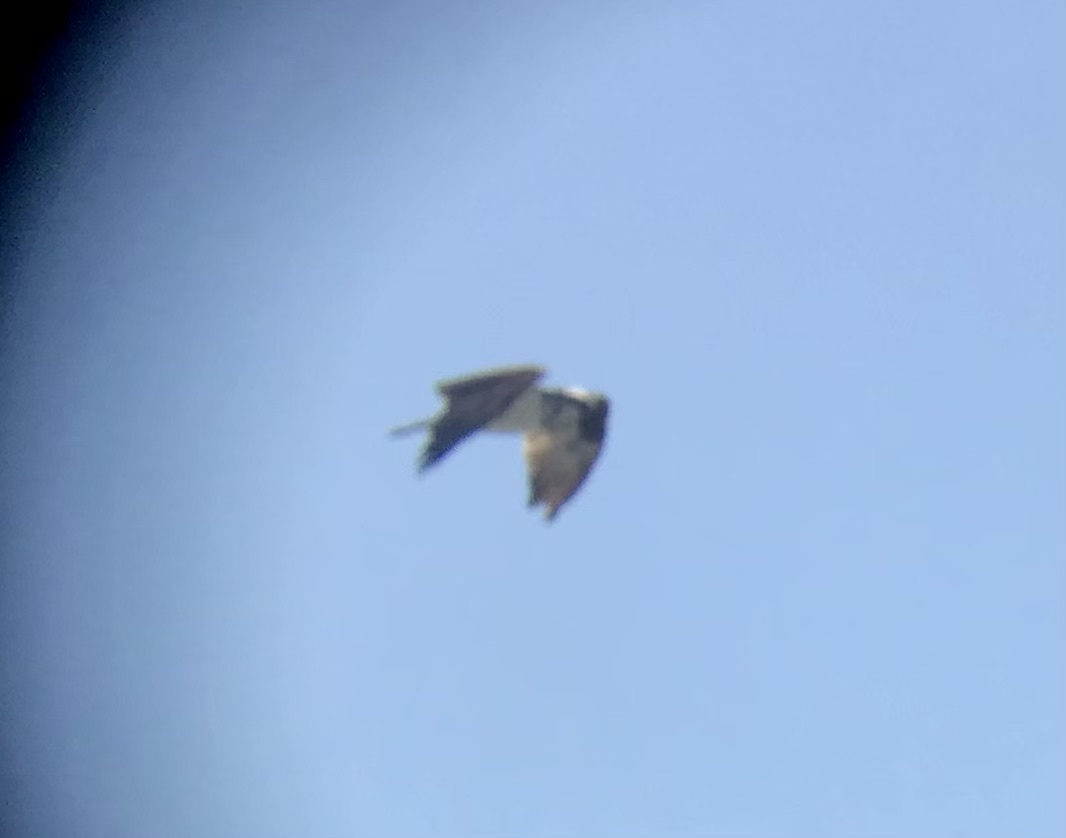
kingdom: Animalia
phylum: Chordata
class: Aves
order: Accipitriformes
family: Pandionidae
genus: Pandion
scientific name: Pandion haliaetus
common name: Osprey
